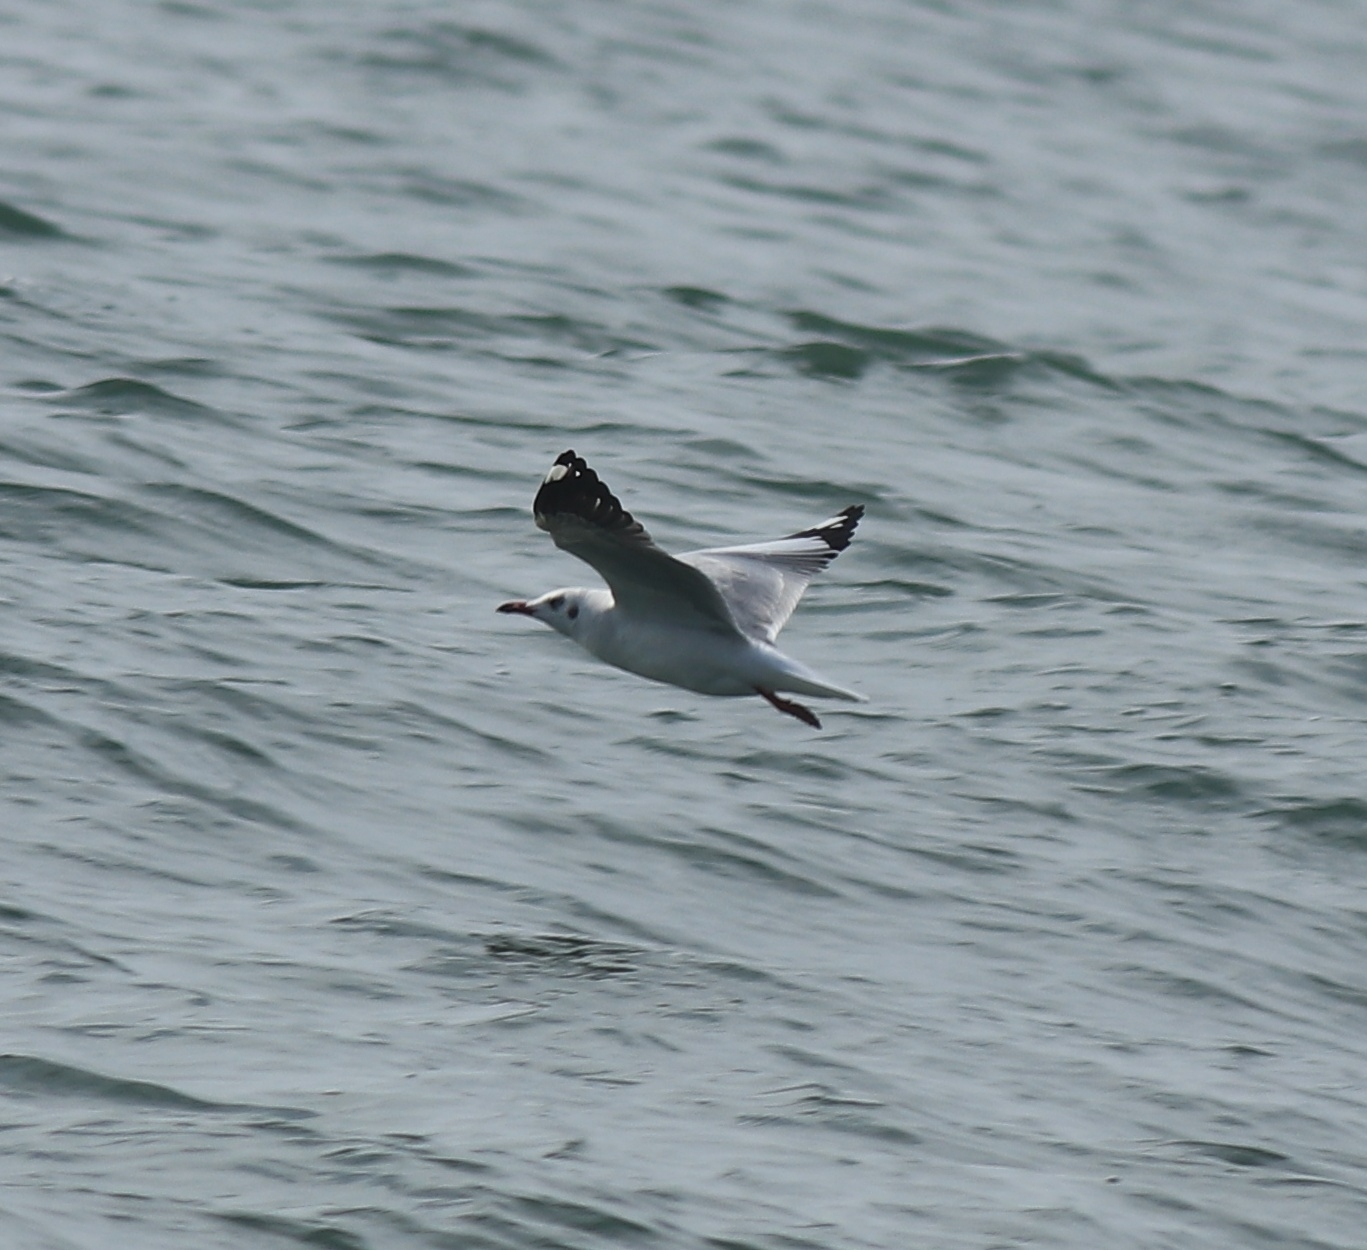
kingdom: Animalia
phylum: Chordata
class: Aves
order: Charadriiformes
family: Laridae
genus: Chroicocephalus
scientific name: Chroicocephalus brunnicephalus
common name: Brown-headed gull
